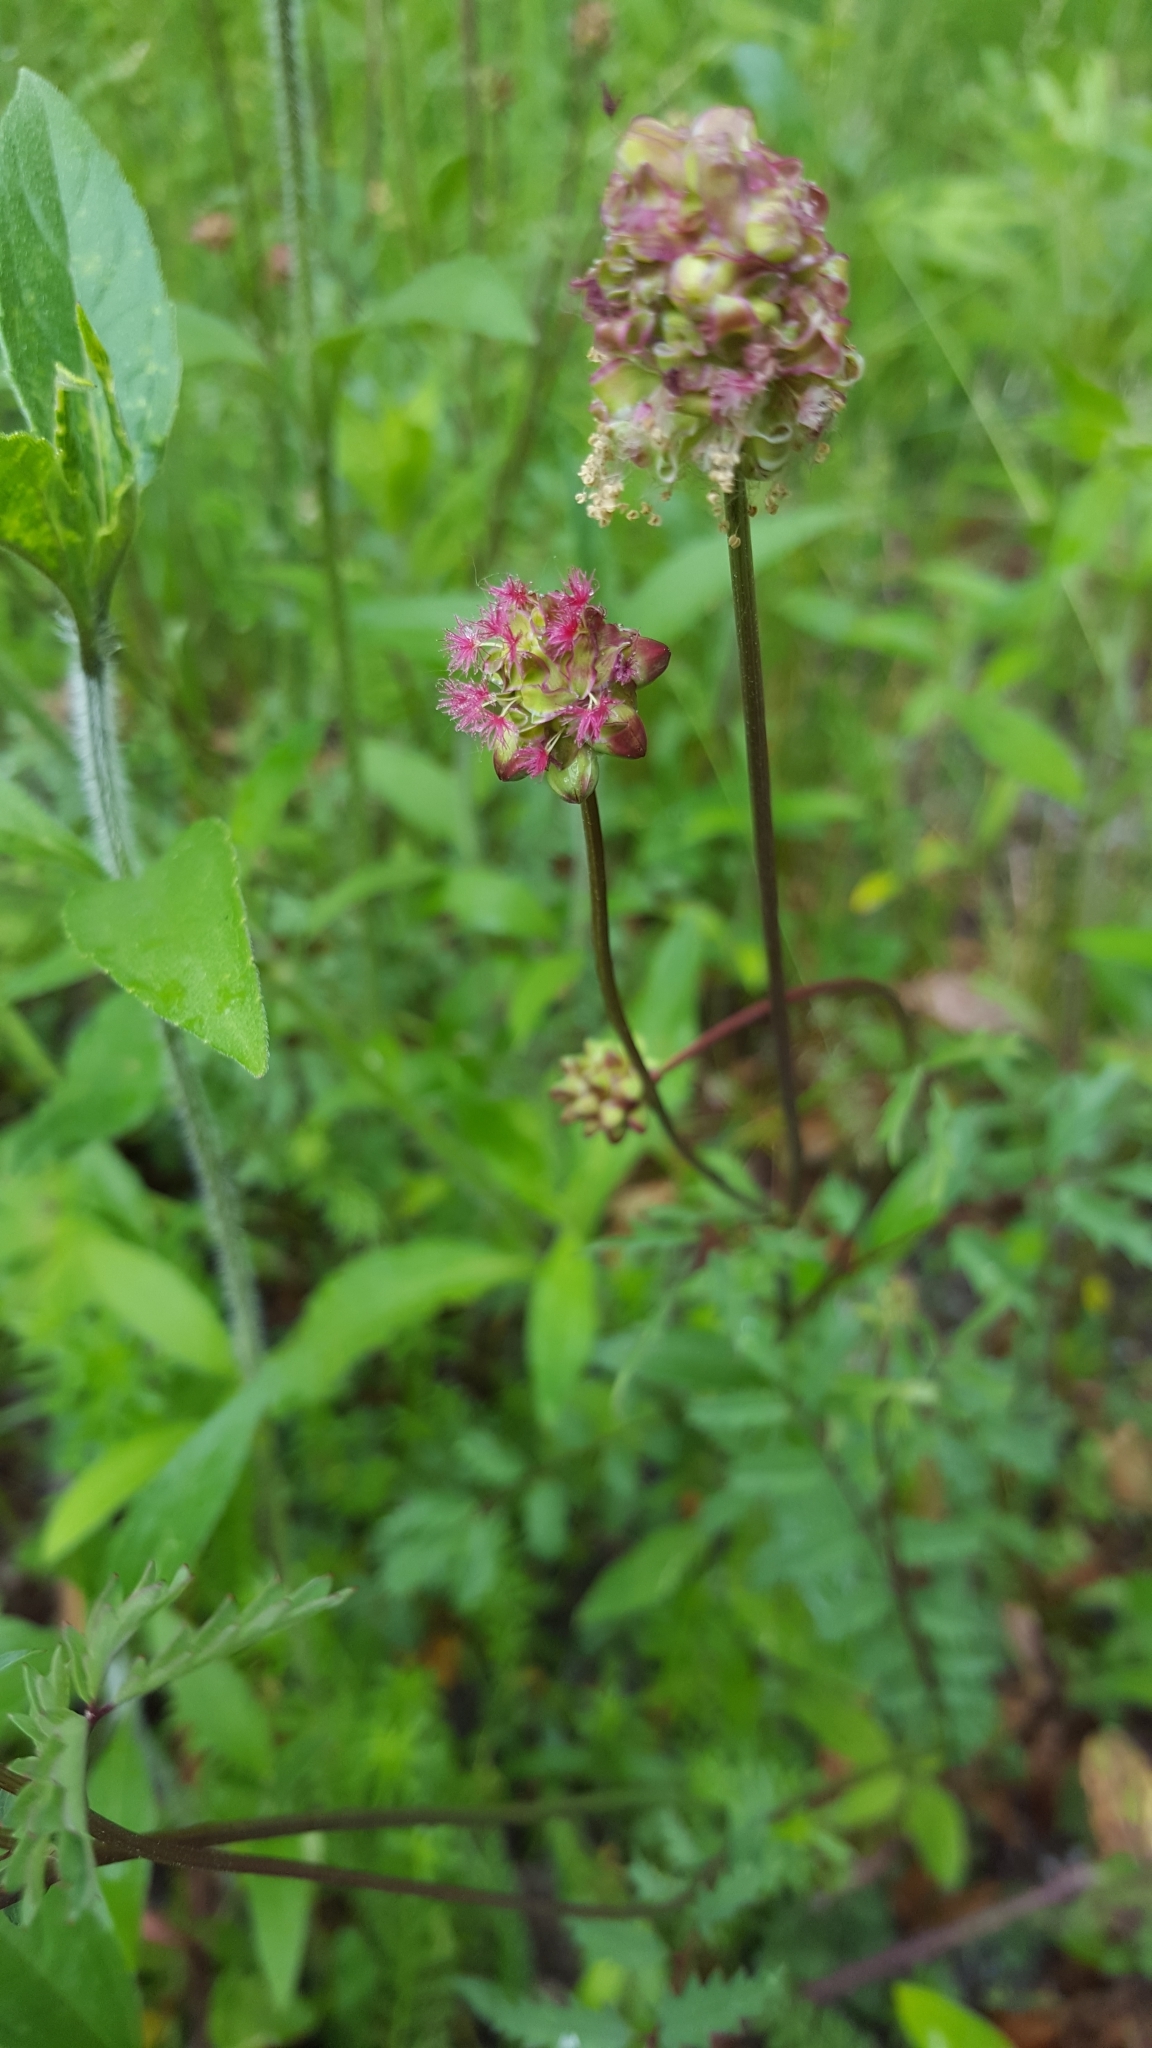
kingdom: Plantae
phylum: Tracheophyta
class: Magnoliopsida
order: Rosales
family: Rosaceae
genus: Poterium
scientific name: Poterium sanguisorba
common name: Salad burnet
